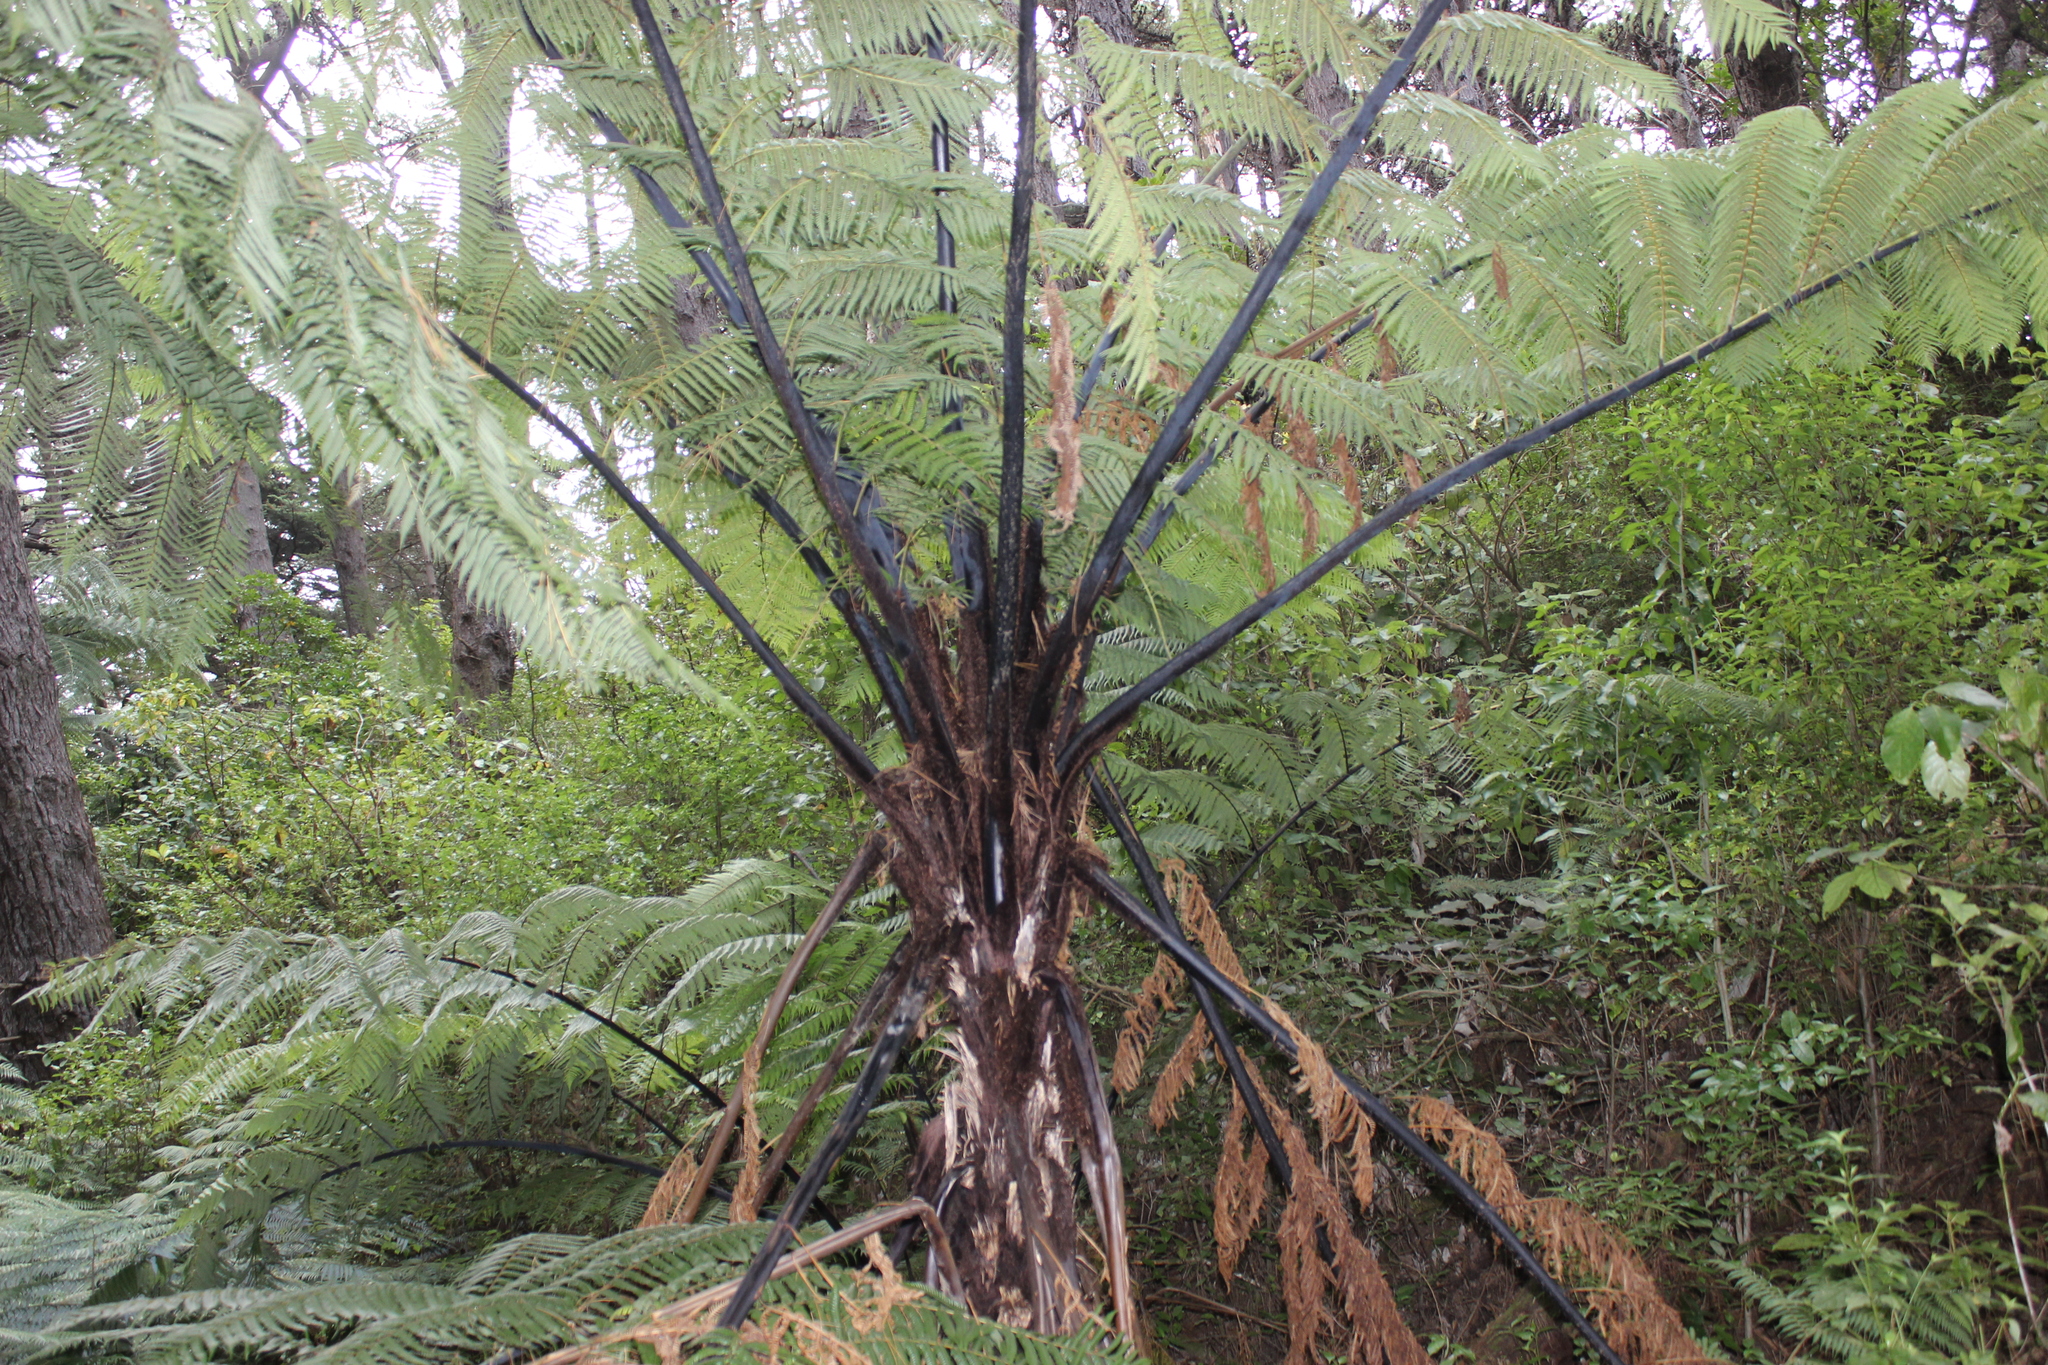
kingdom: Plantae
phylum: Tracheophyta
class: Polypodiopsida
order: Cyatheales
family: Cyatheaceae
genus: Sphaeropteris
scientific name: Sphaeropteris medullaris
